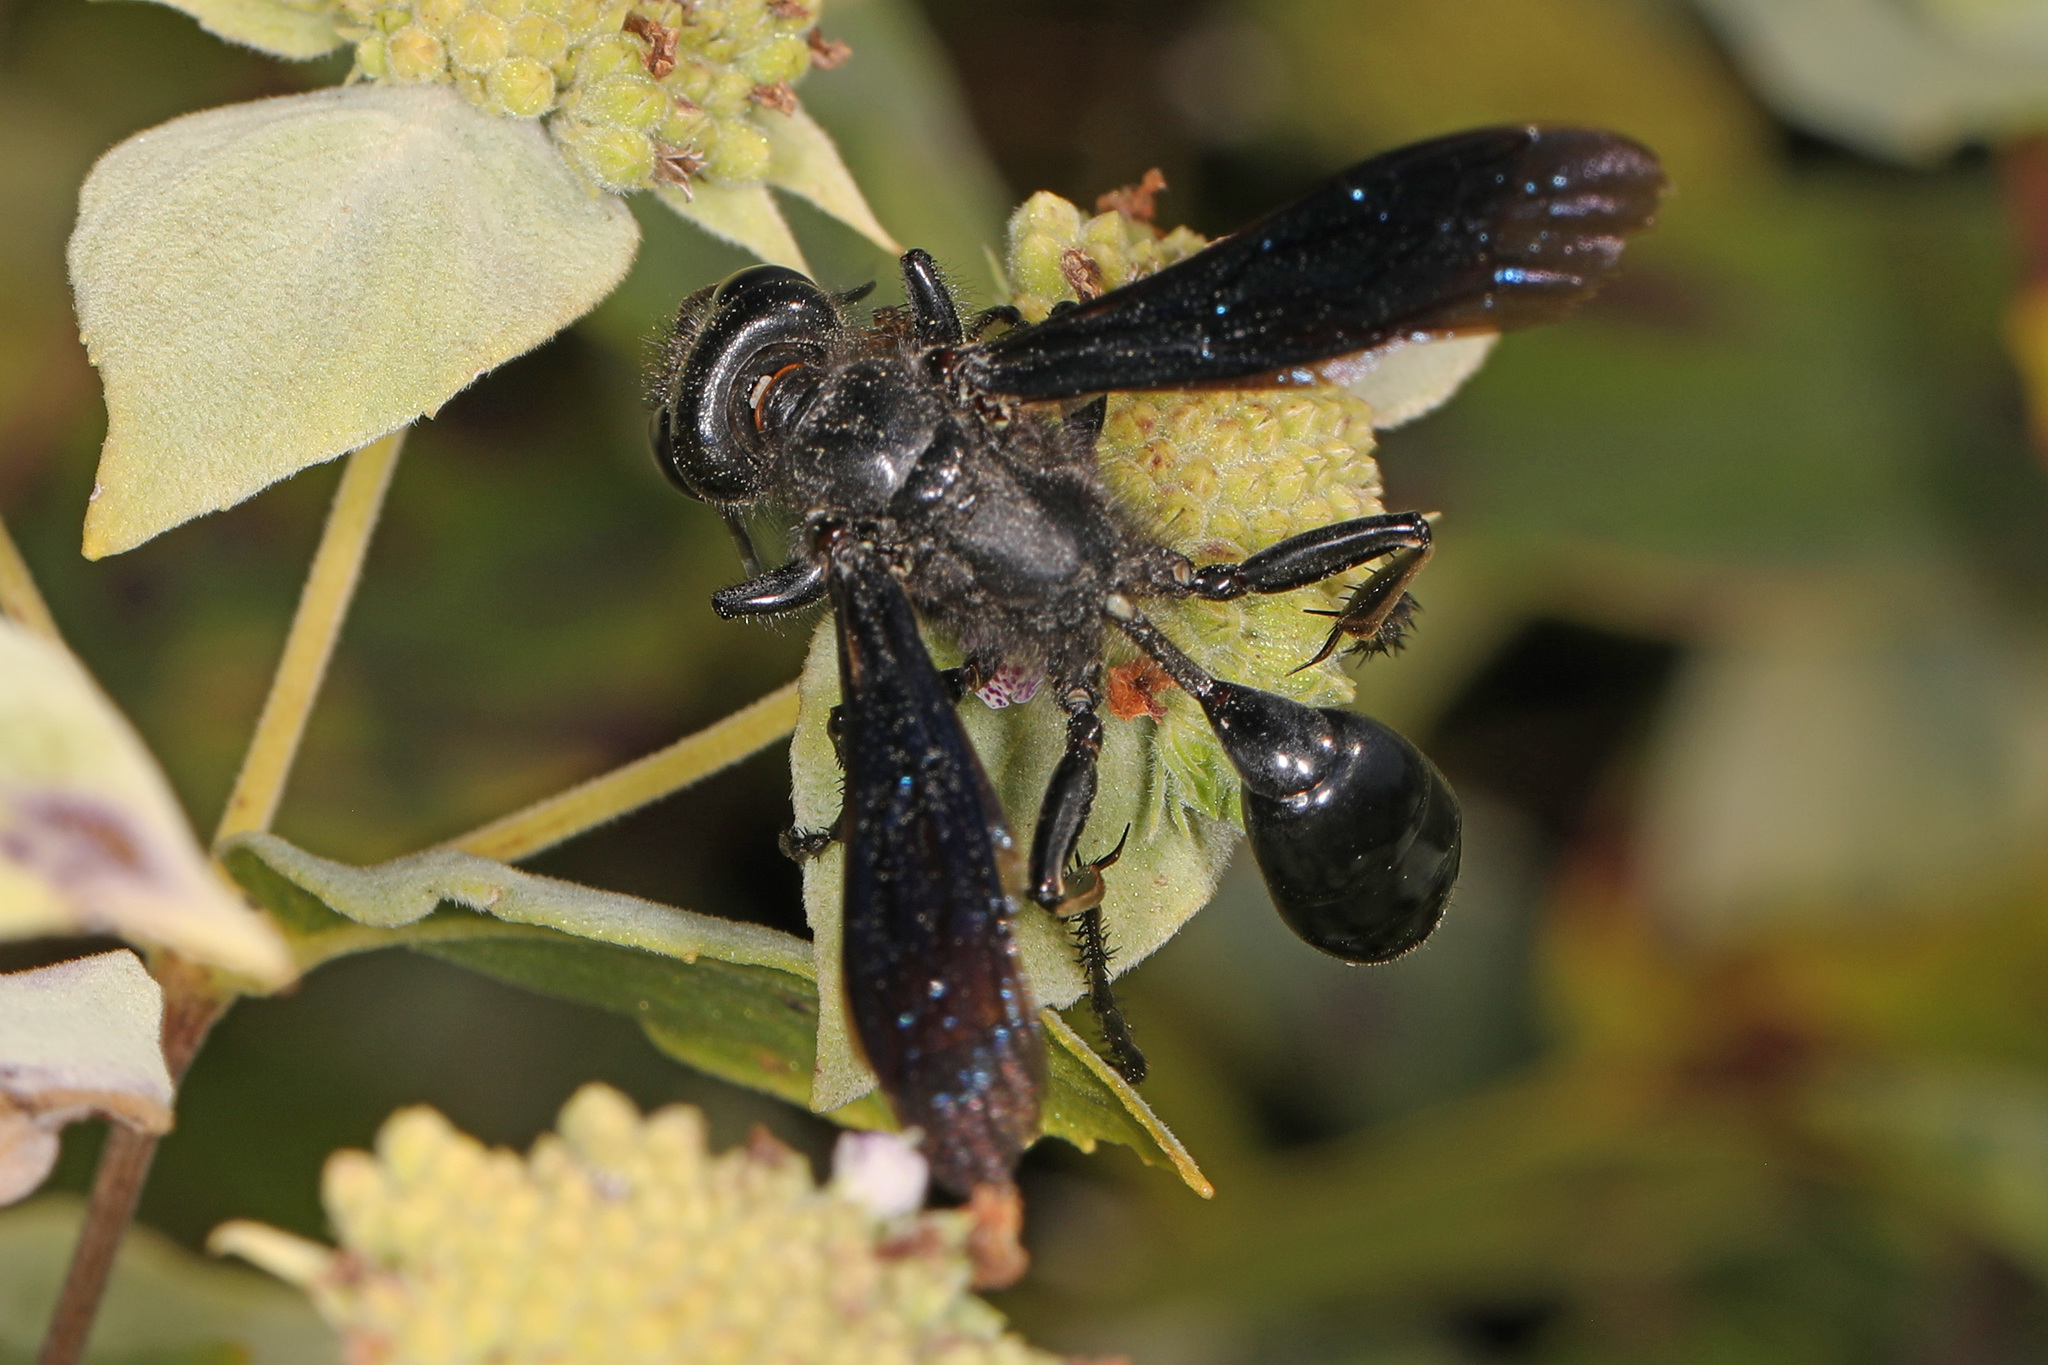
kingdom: Animalia
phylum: Arthropoda
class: Insecta
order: Hymenoptera
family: Sphecidae
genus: Isodontia
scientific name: Isodontia philadelphica
